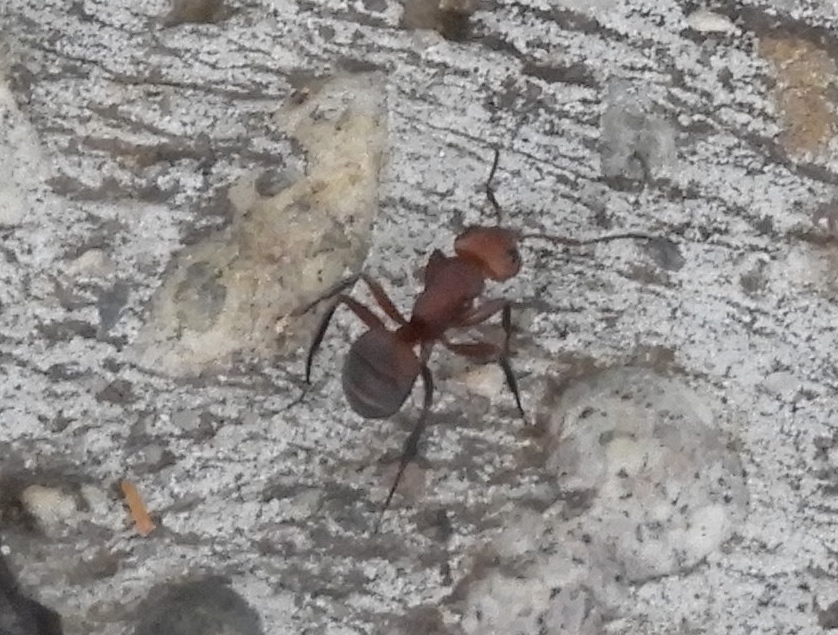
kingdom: Animalia
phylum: Arthropoda
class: Insecta
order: Hymenoptera
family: Formicidae
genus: Camponotus
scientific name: Camponotus rectangularis
